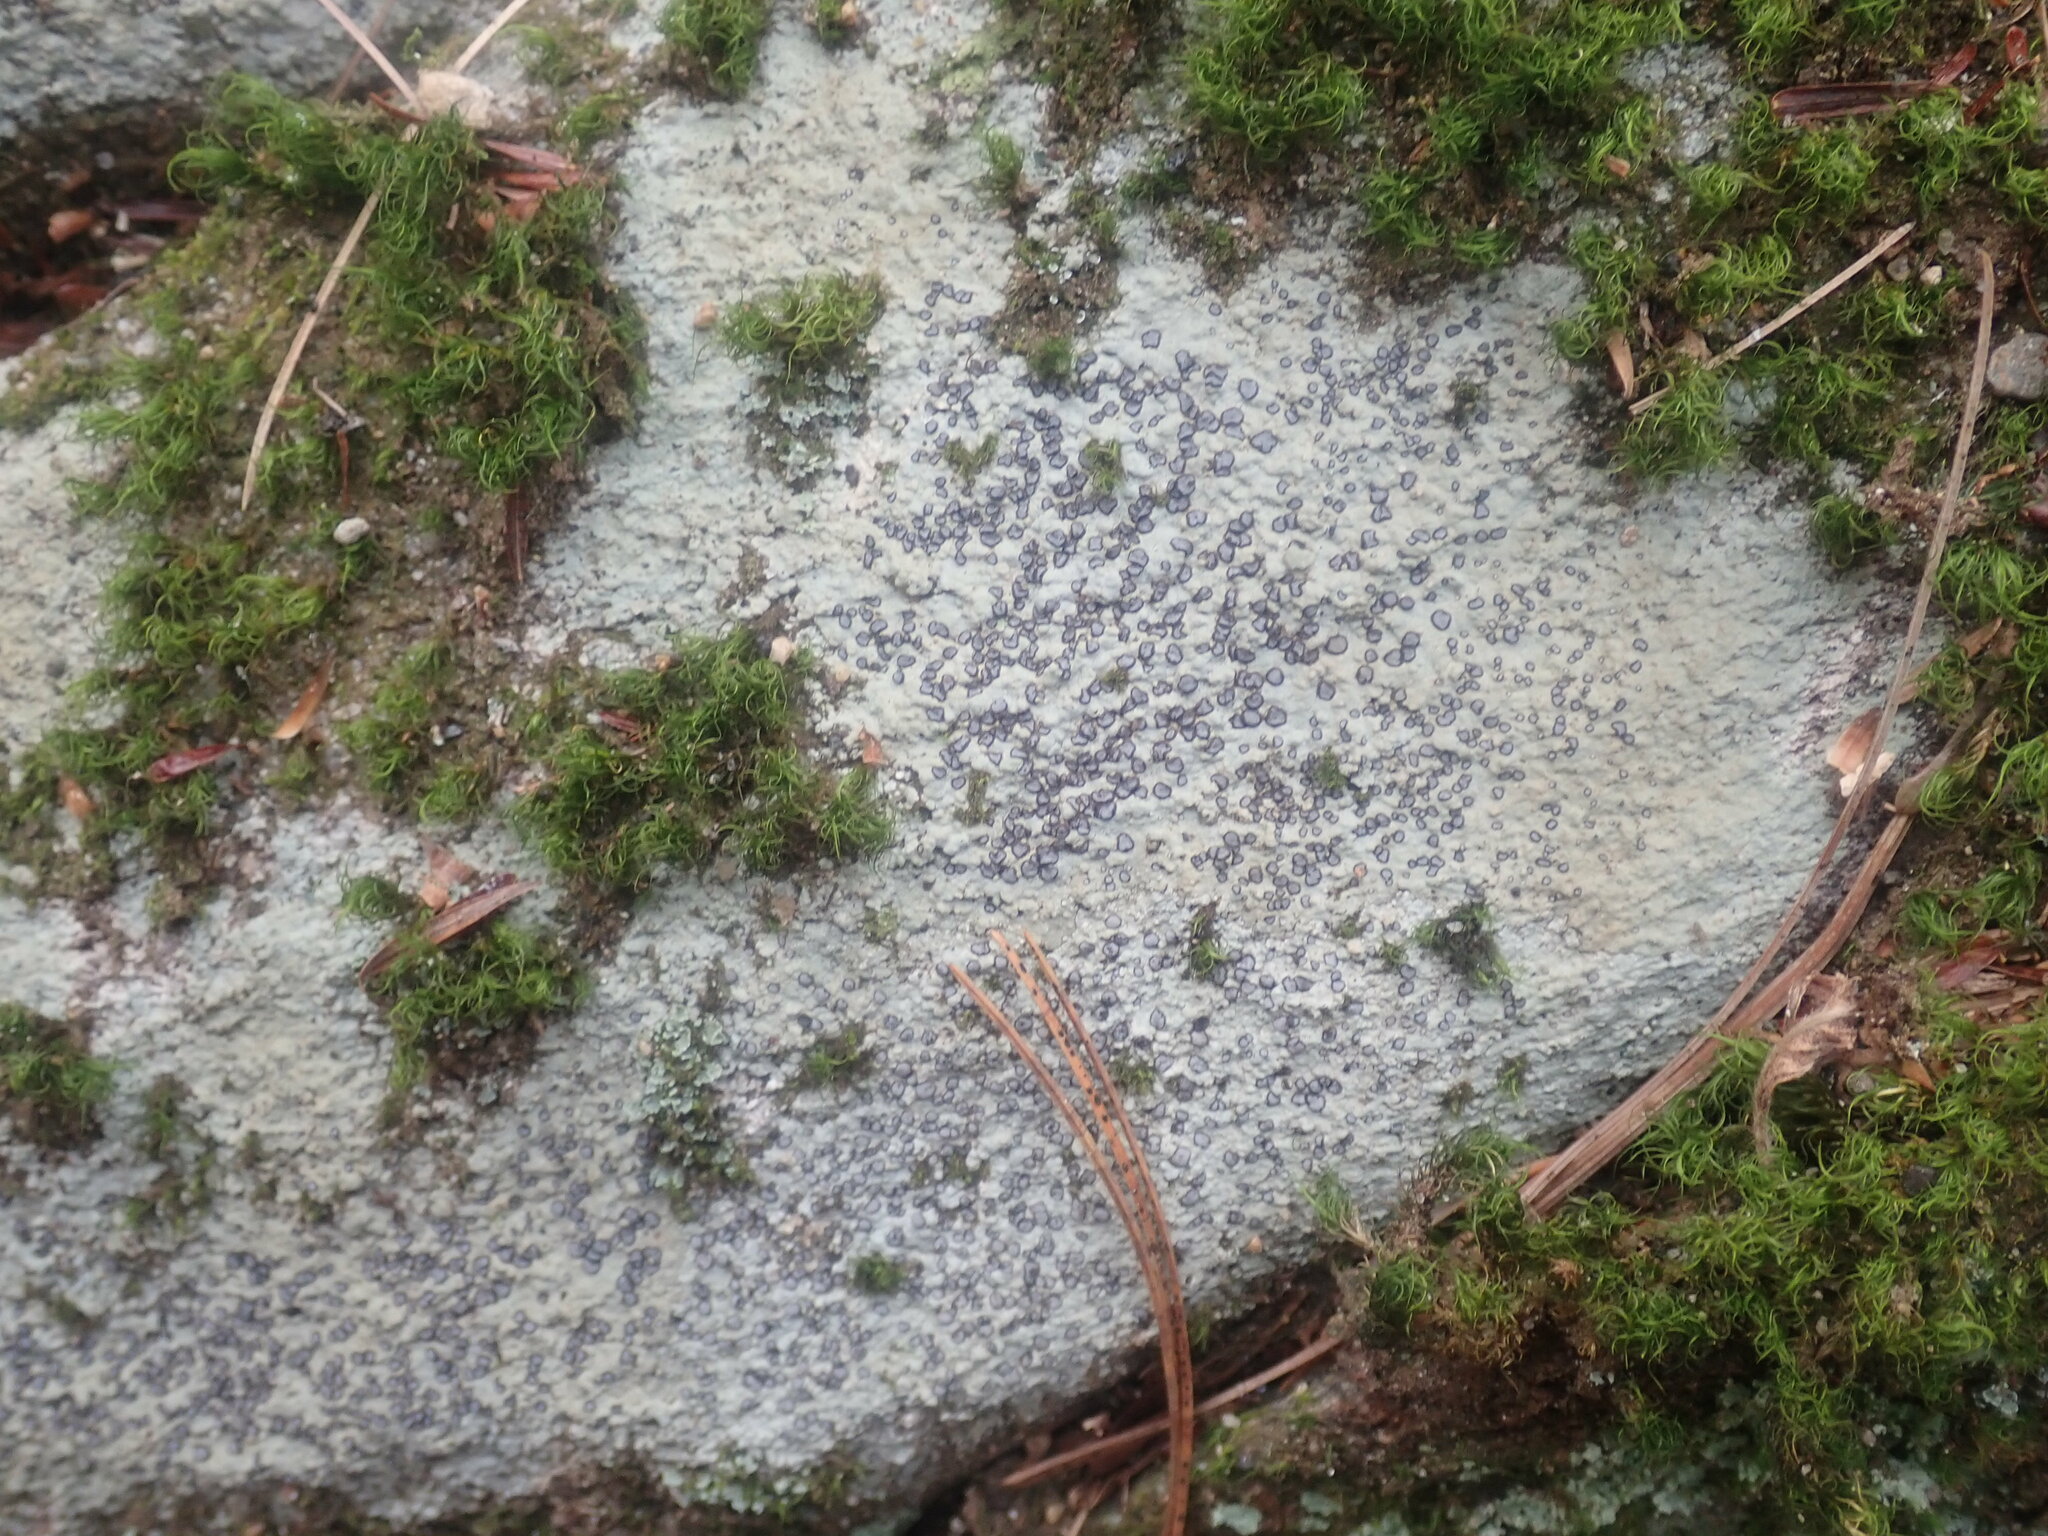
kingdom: Fungi
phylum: Ascomycota
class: Lecanoromycetes
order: Lecideales
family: Lecideaceae
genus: Porpidia
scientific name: Porpidia albocaerulescens
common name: Smokey-eyed boulder lichen
